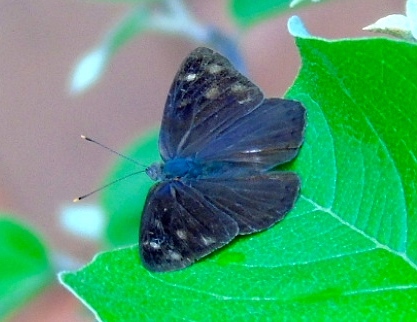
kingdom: Animalia
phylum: Arthropoda
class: Insecta
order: Lepidoptera
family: Nymphalidae
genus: Eunica
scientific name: Eunica monima
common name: Dingy purplewing
